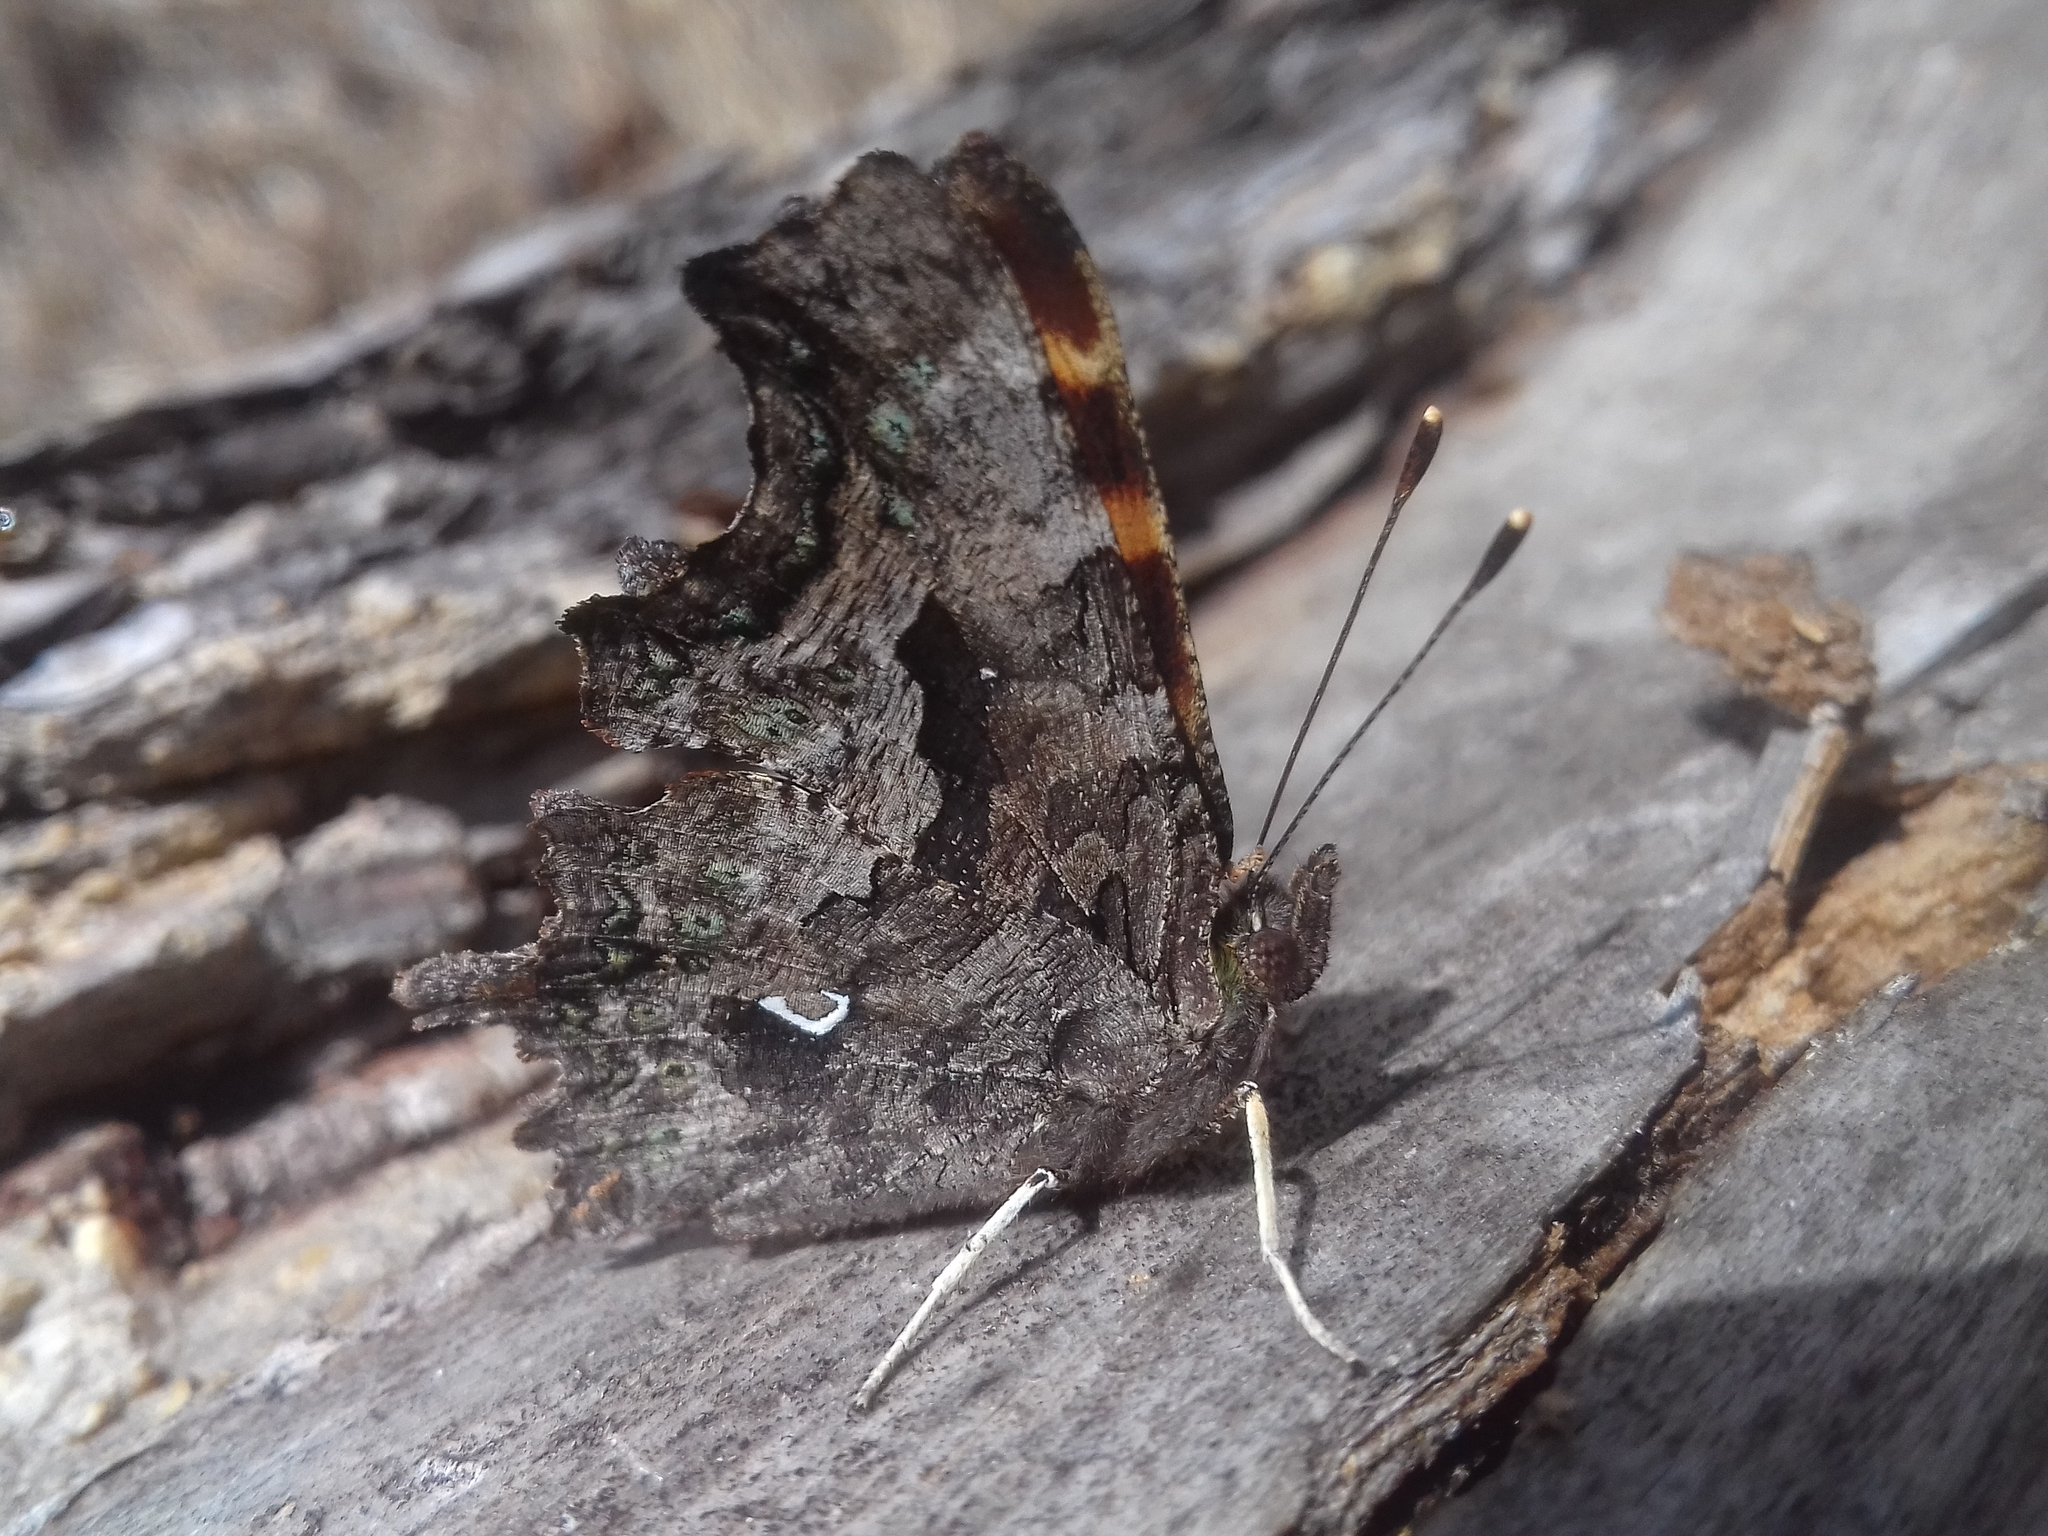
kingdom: Animalia
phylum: Arthropoda
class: Insecta
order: Lepidoptera
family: Nymphalidae
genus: Polygonia
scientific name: Polygonia c-album
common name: Comma
